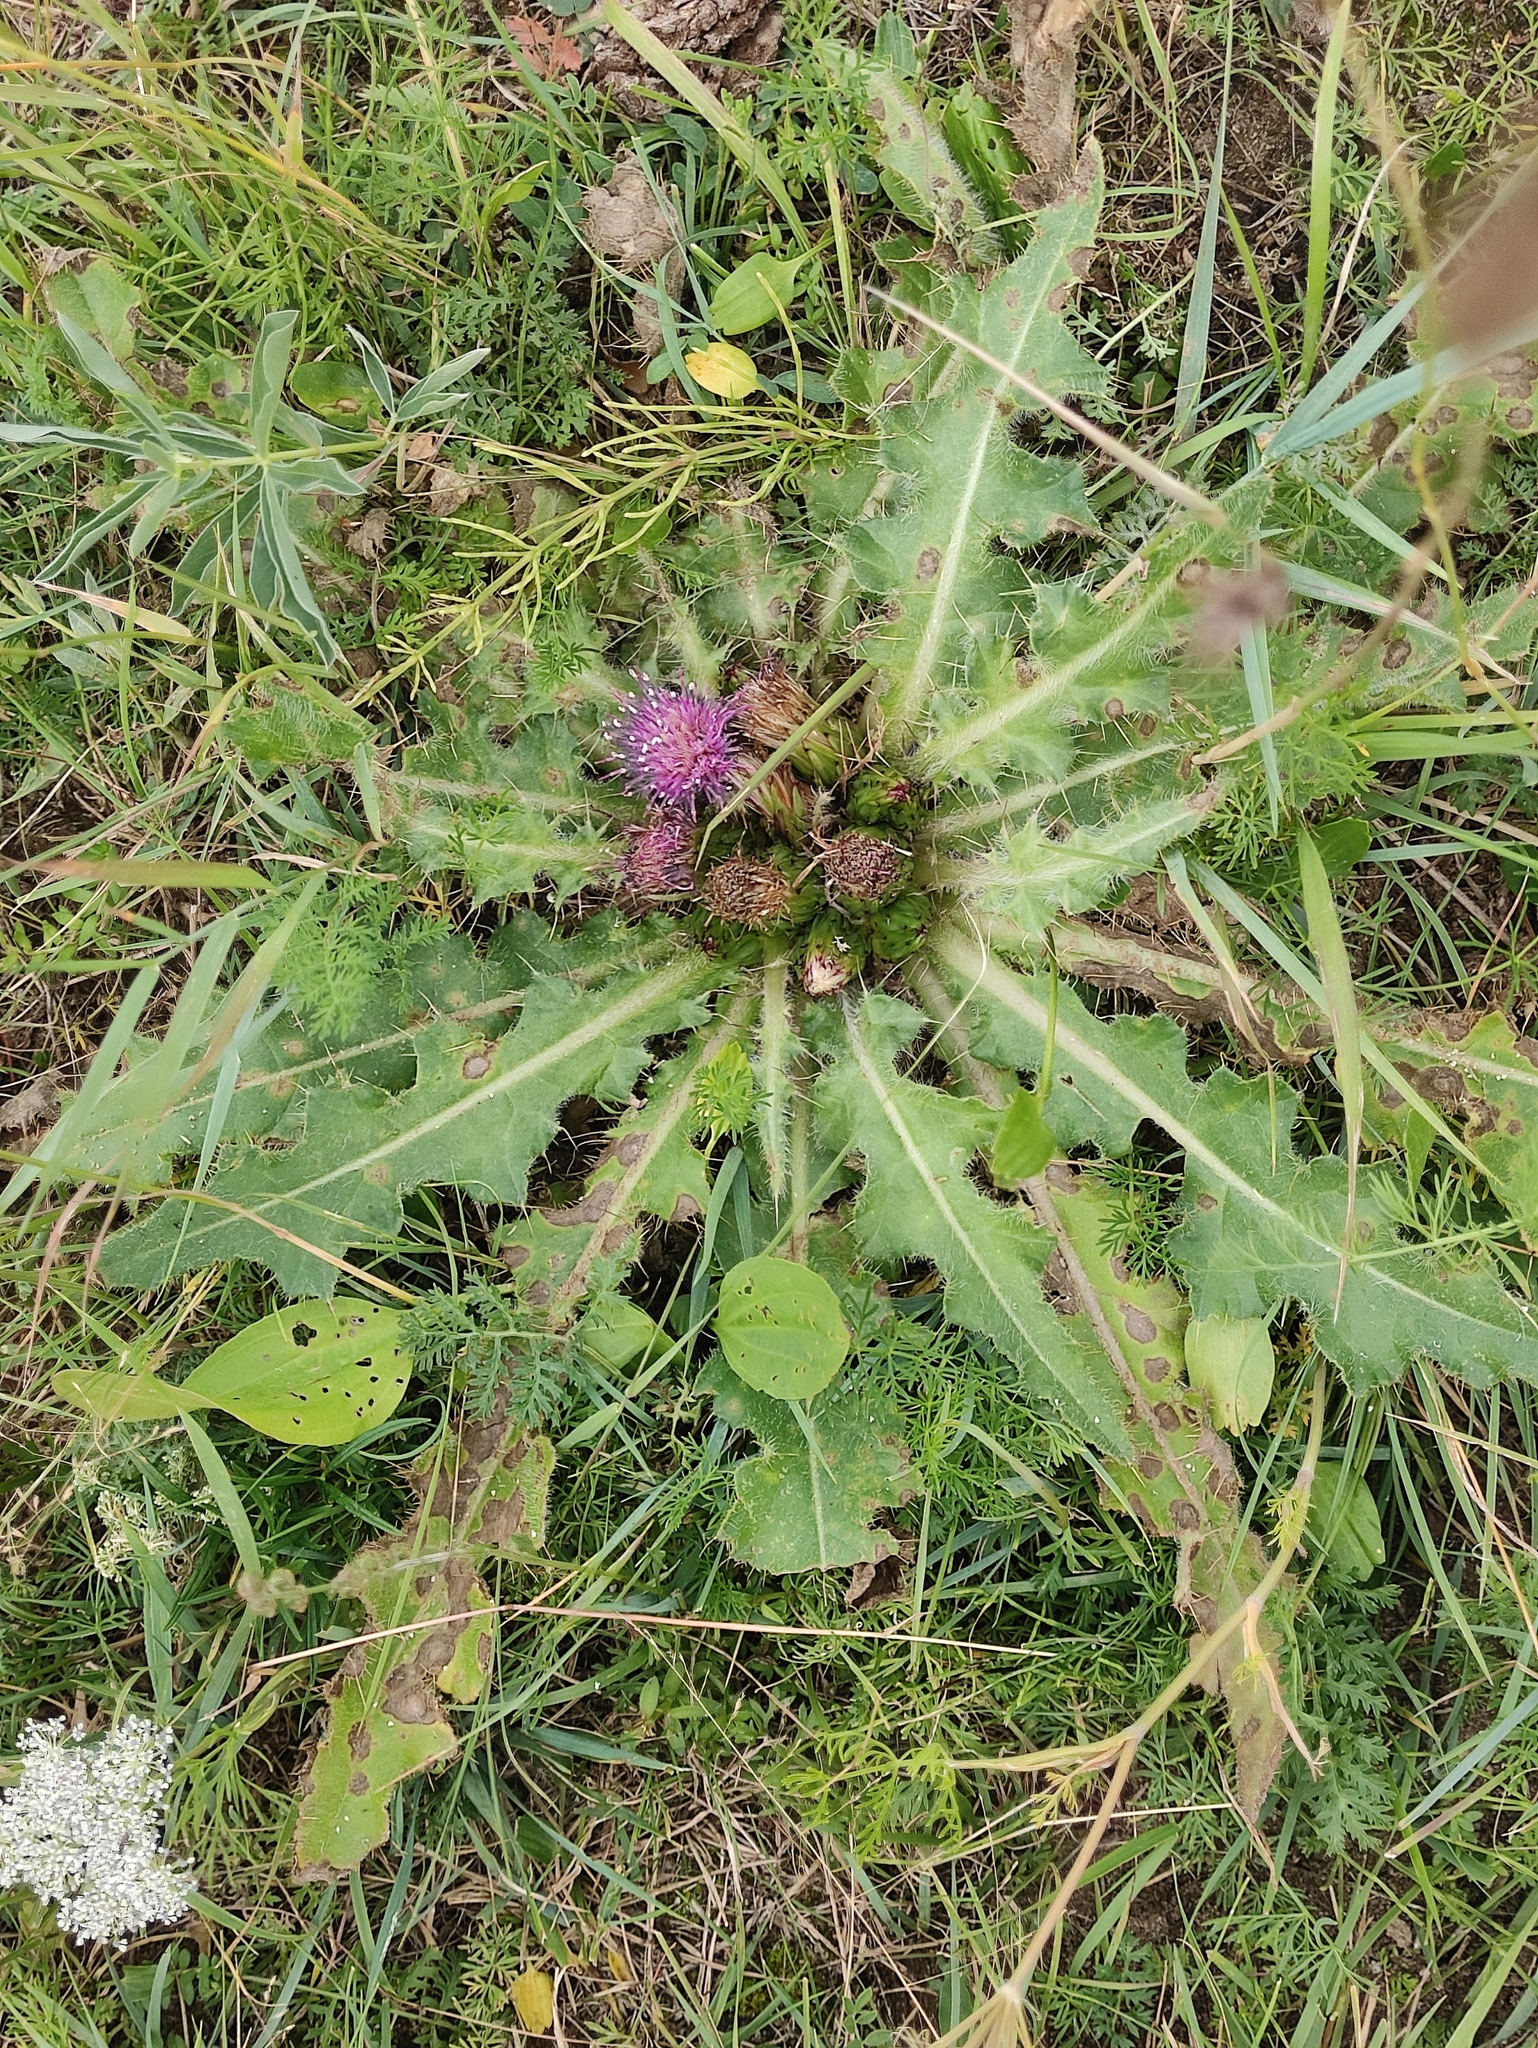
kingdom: Plantae
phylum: Tracheophyta
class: Magnoliopsida
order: Asterales
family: Asteraceae
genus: Cirsium
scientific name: Cirsium esculentum
